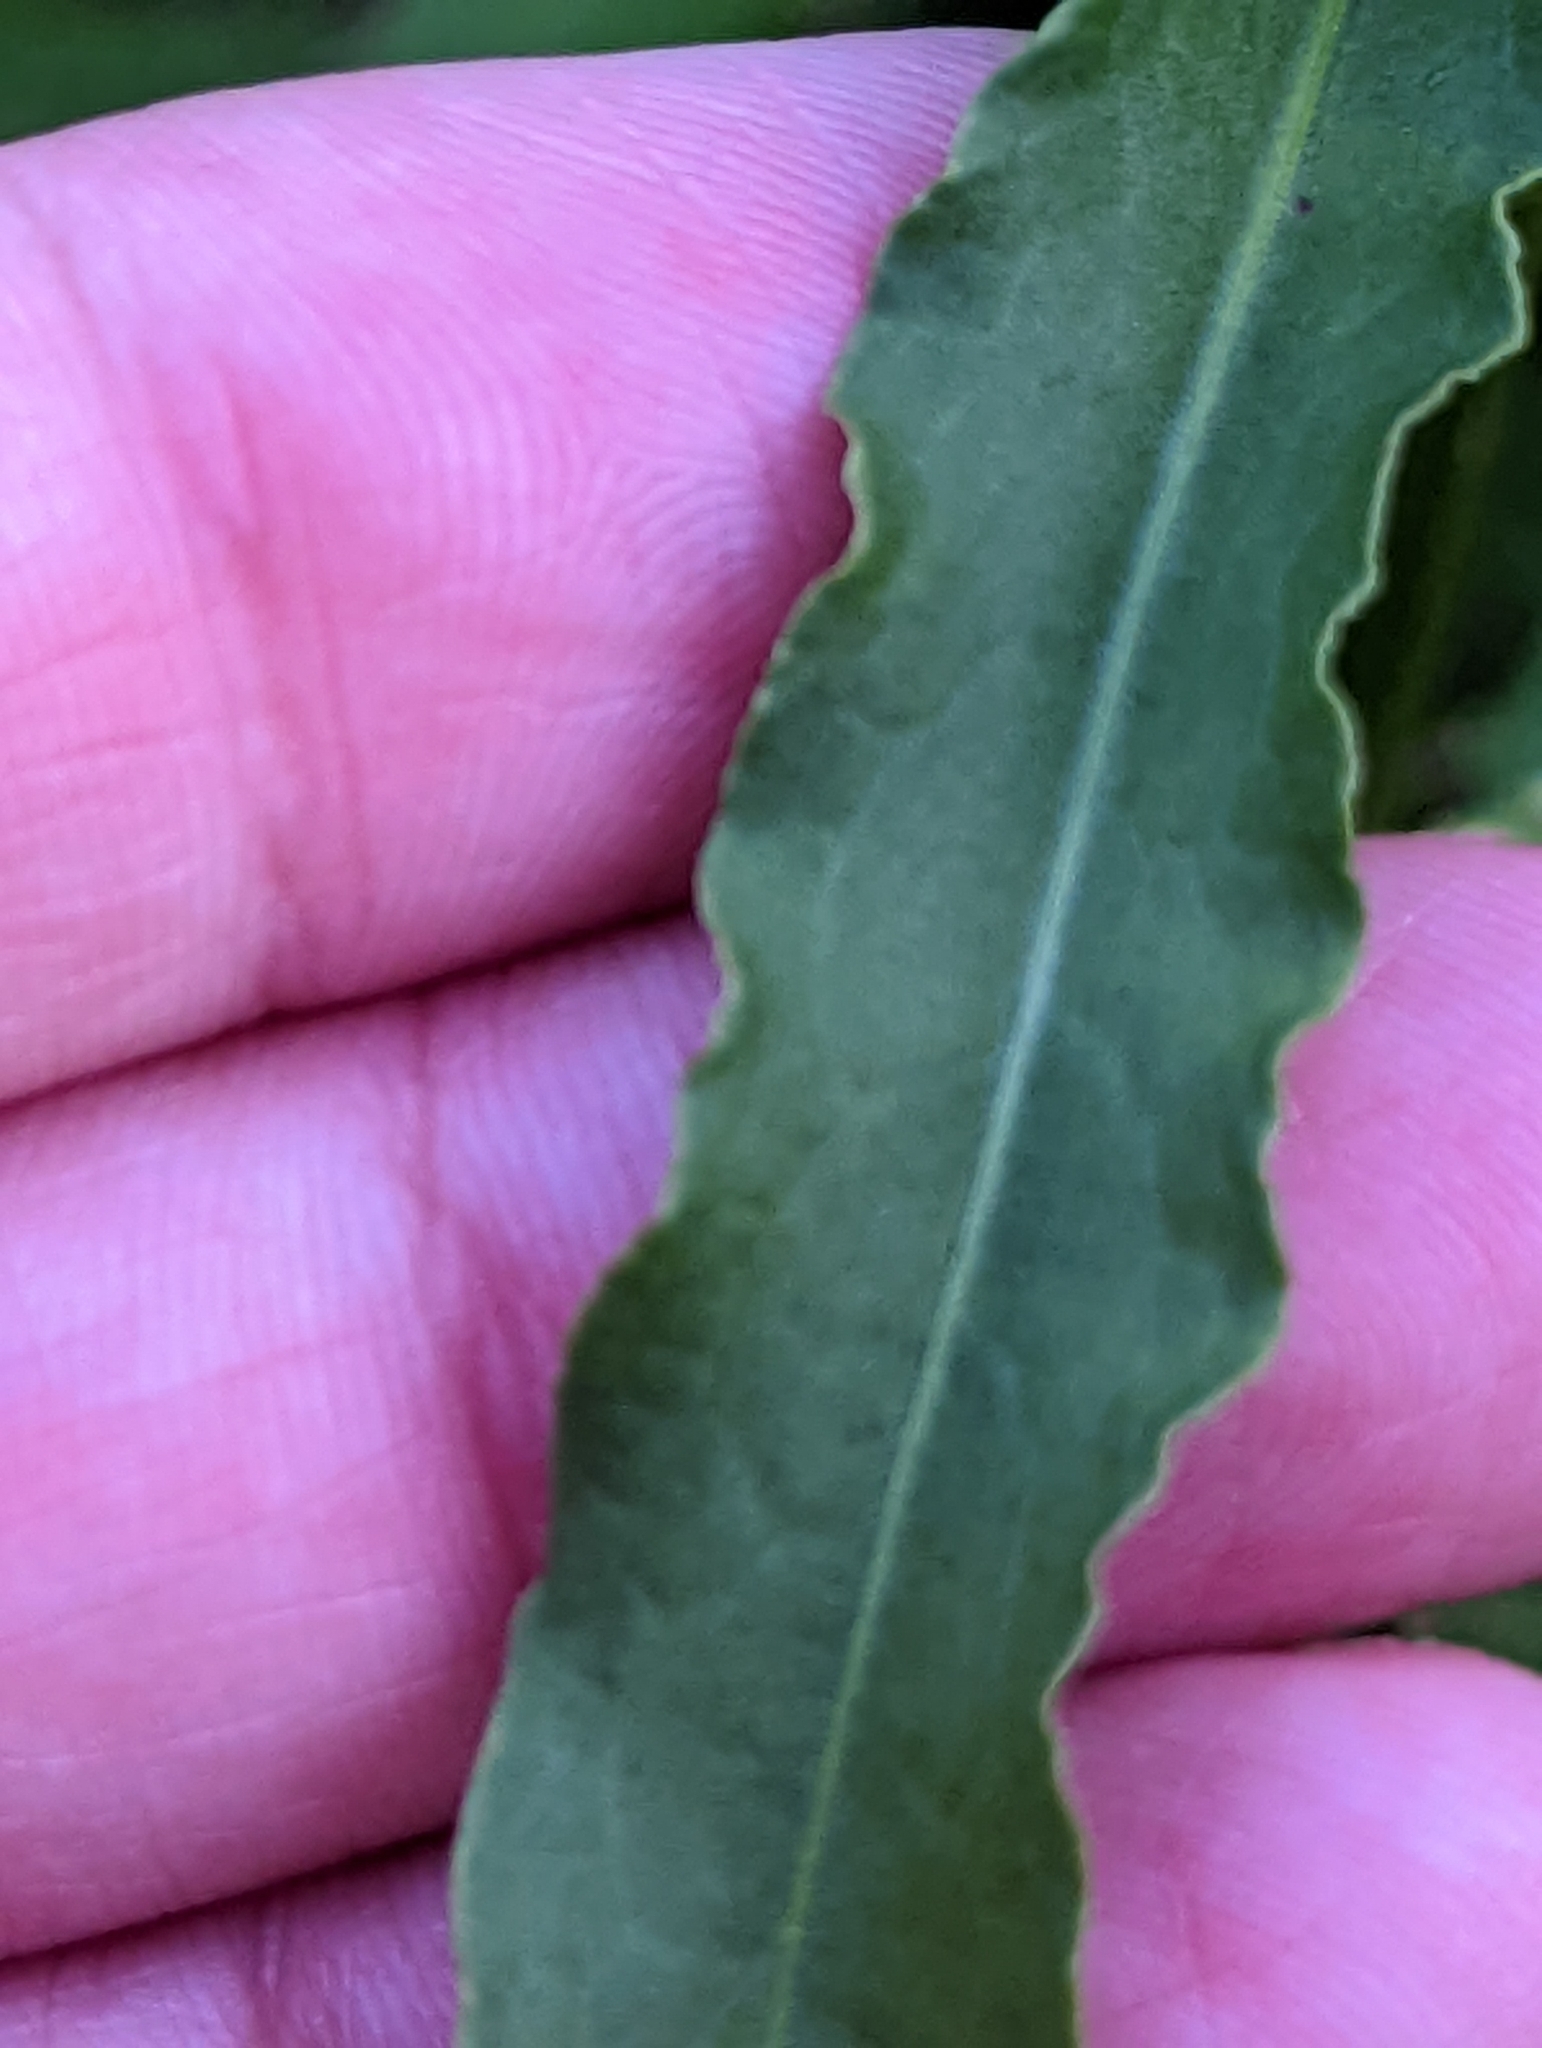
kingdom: Plantae
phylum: Tracheophyta
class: Magnoliopsida
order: Caryophyllales
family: Polygonaceae
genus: Rumex
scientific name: Rumex crispus
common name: Curled dock
